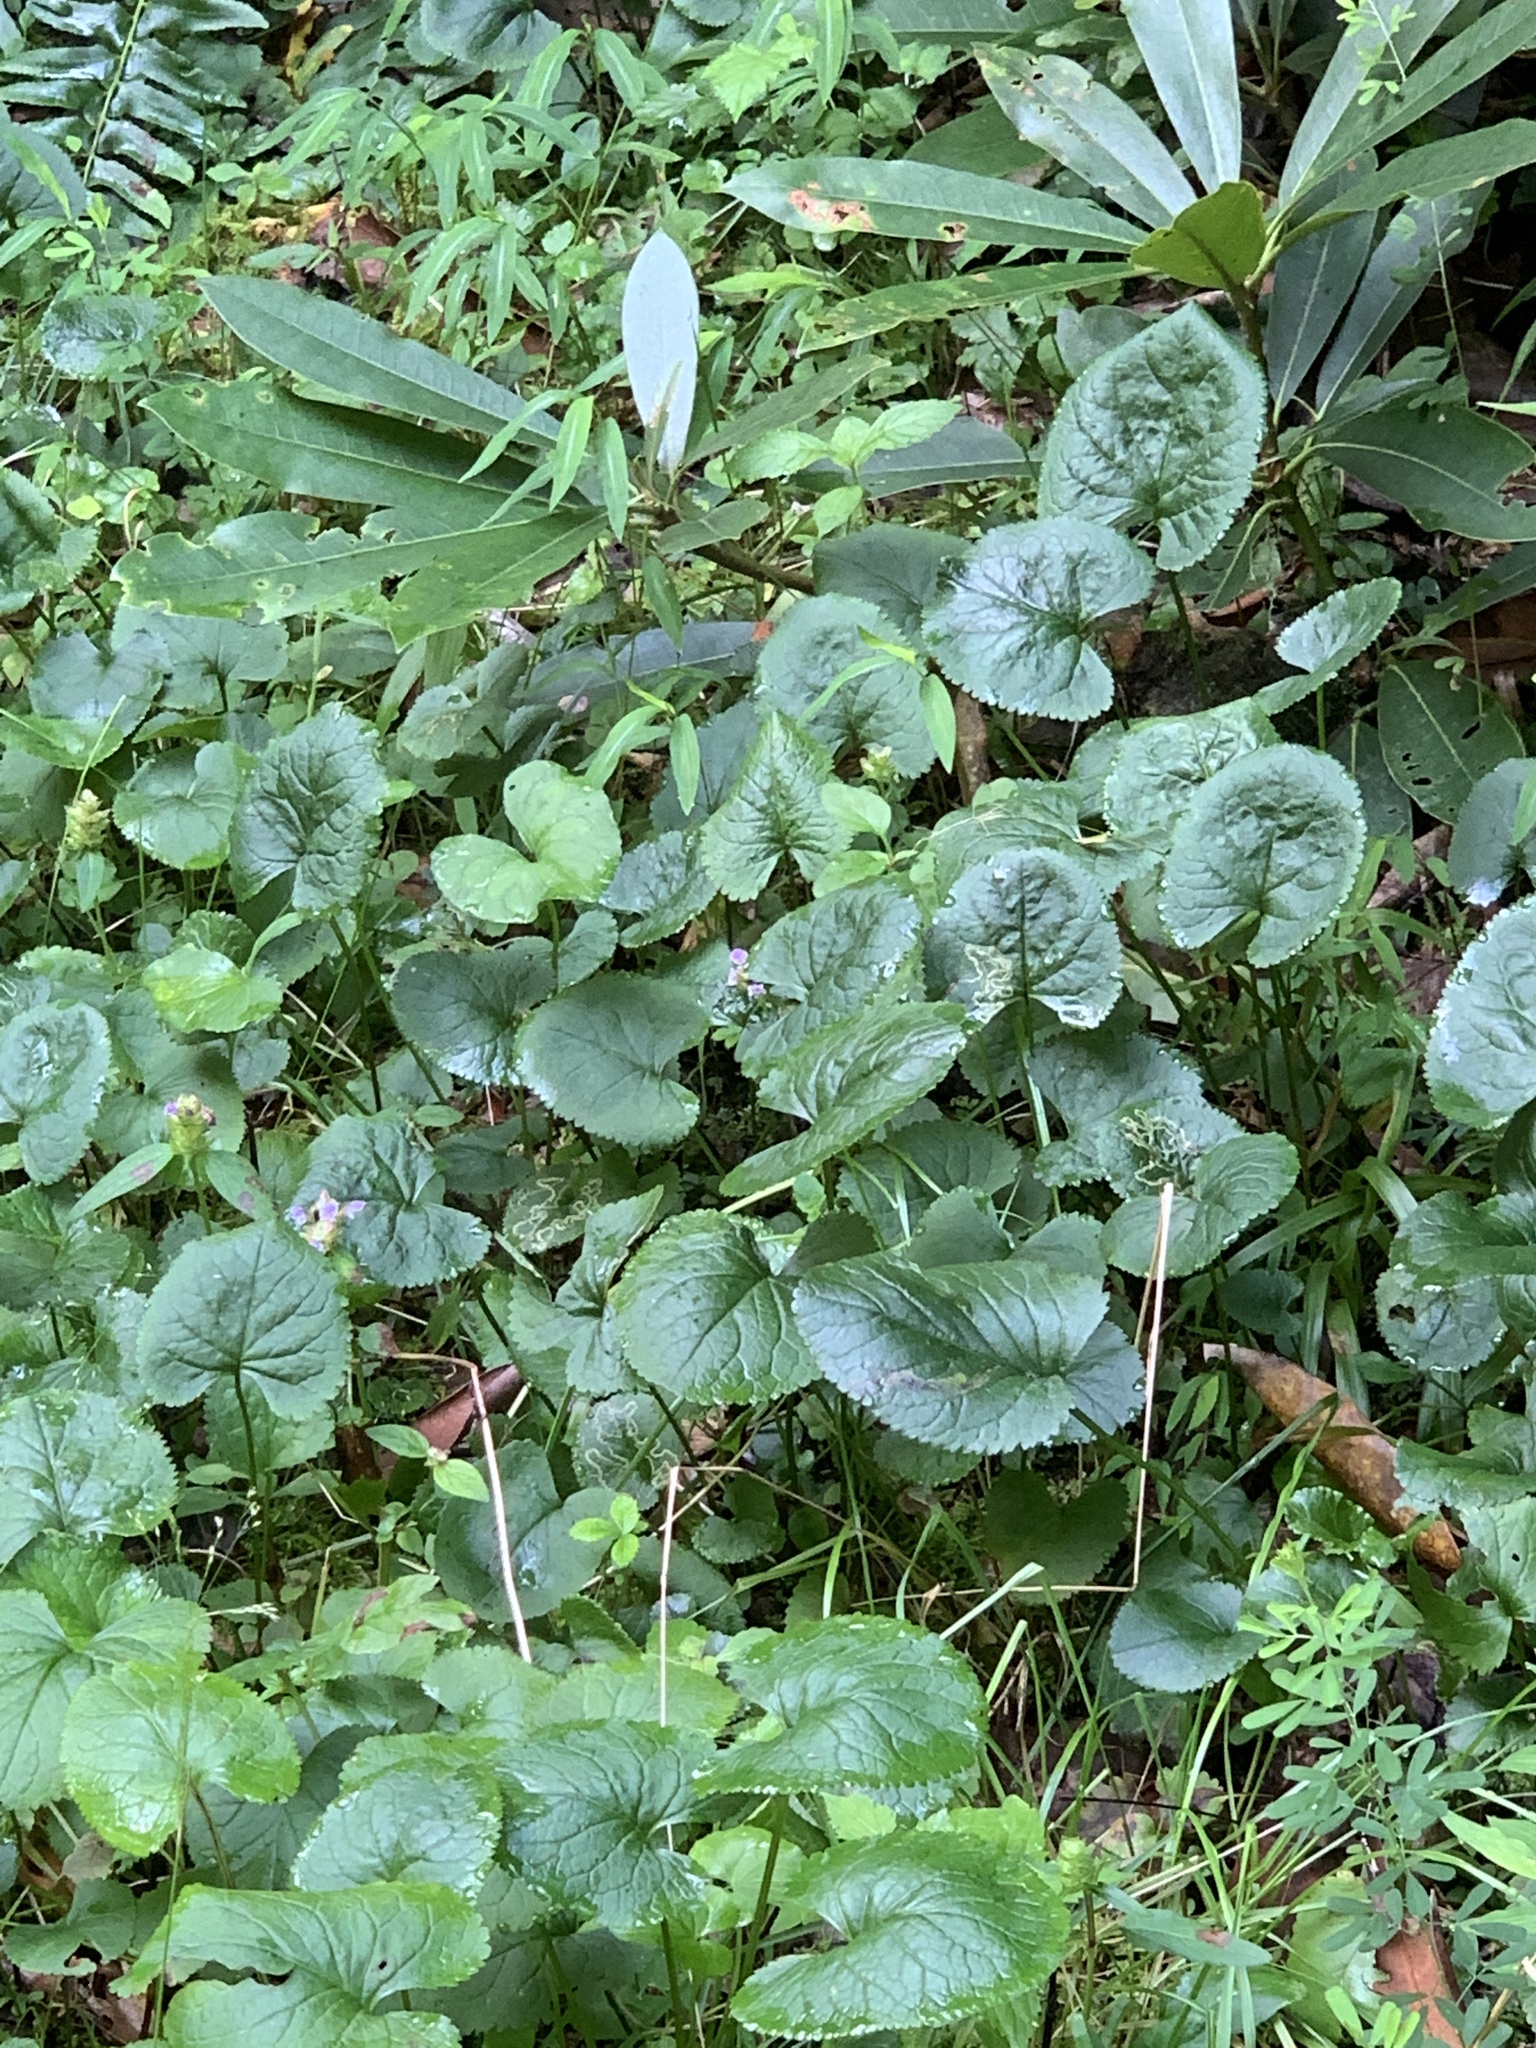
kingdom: Plantae
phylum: Tracheophyta
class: Magnoliopsida
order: Asterales
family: Asteraceae
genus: Packera
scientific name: Packera aurea
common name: Golden groundsel
